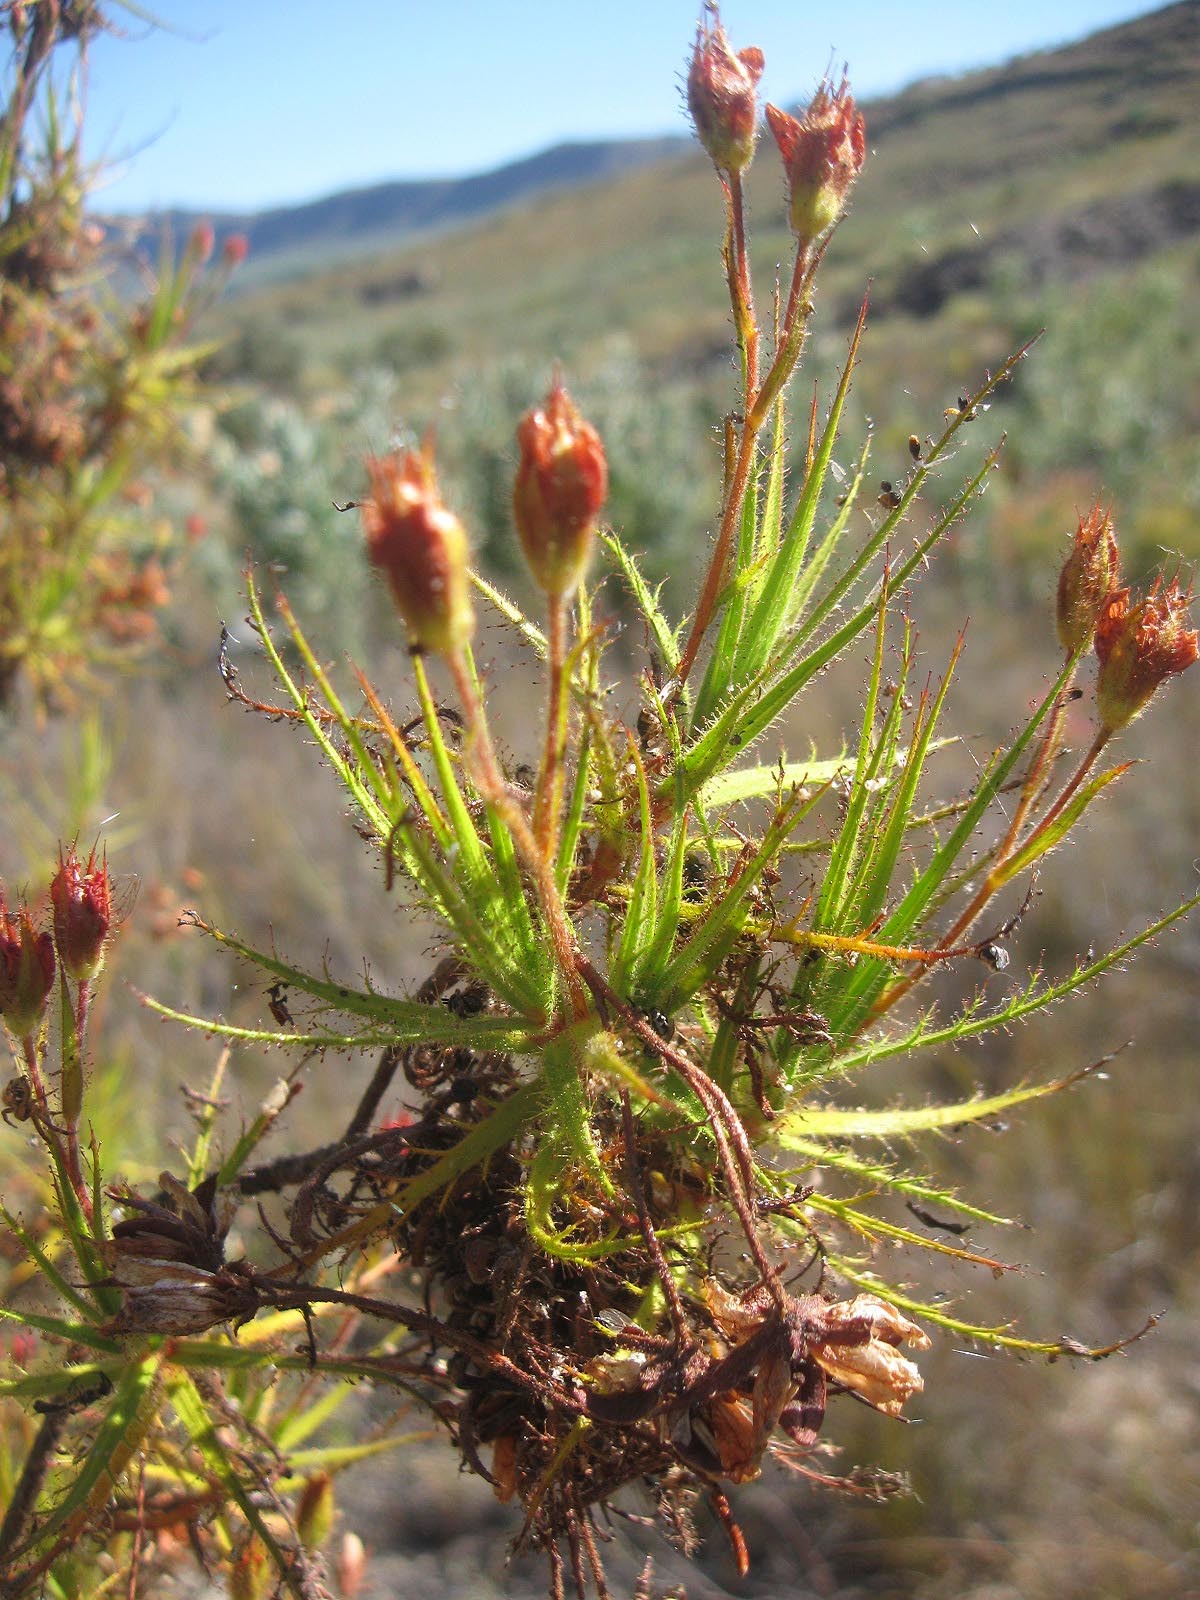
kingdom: Plantae
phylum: Tracheophyta
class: Magnoliopsida
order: Ericales
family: Roridulaceae
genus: Roridula
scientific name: Roridula dentata
